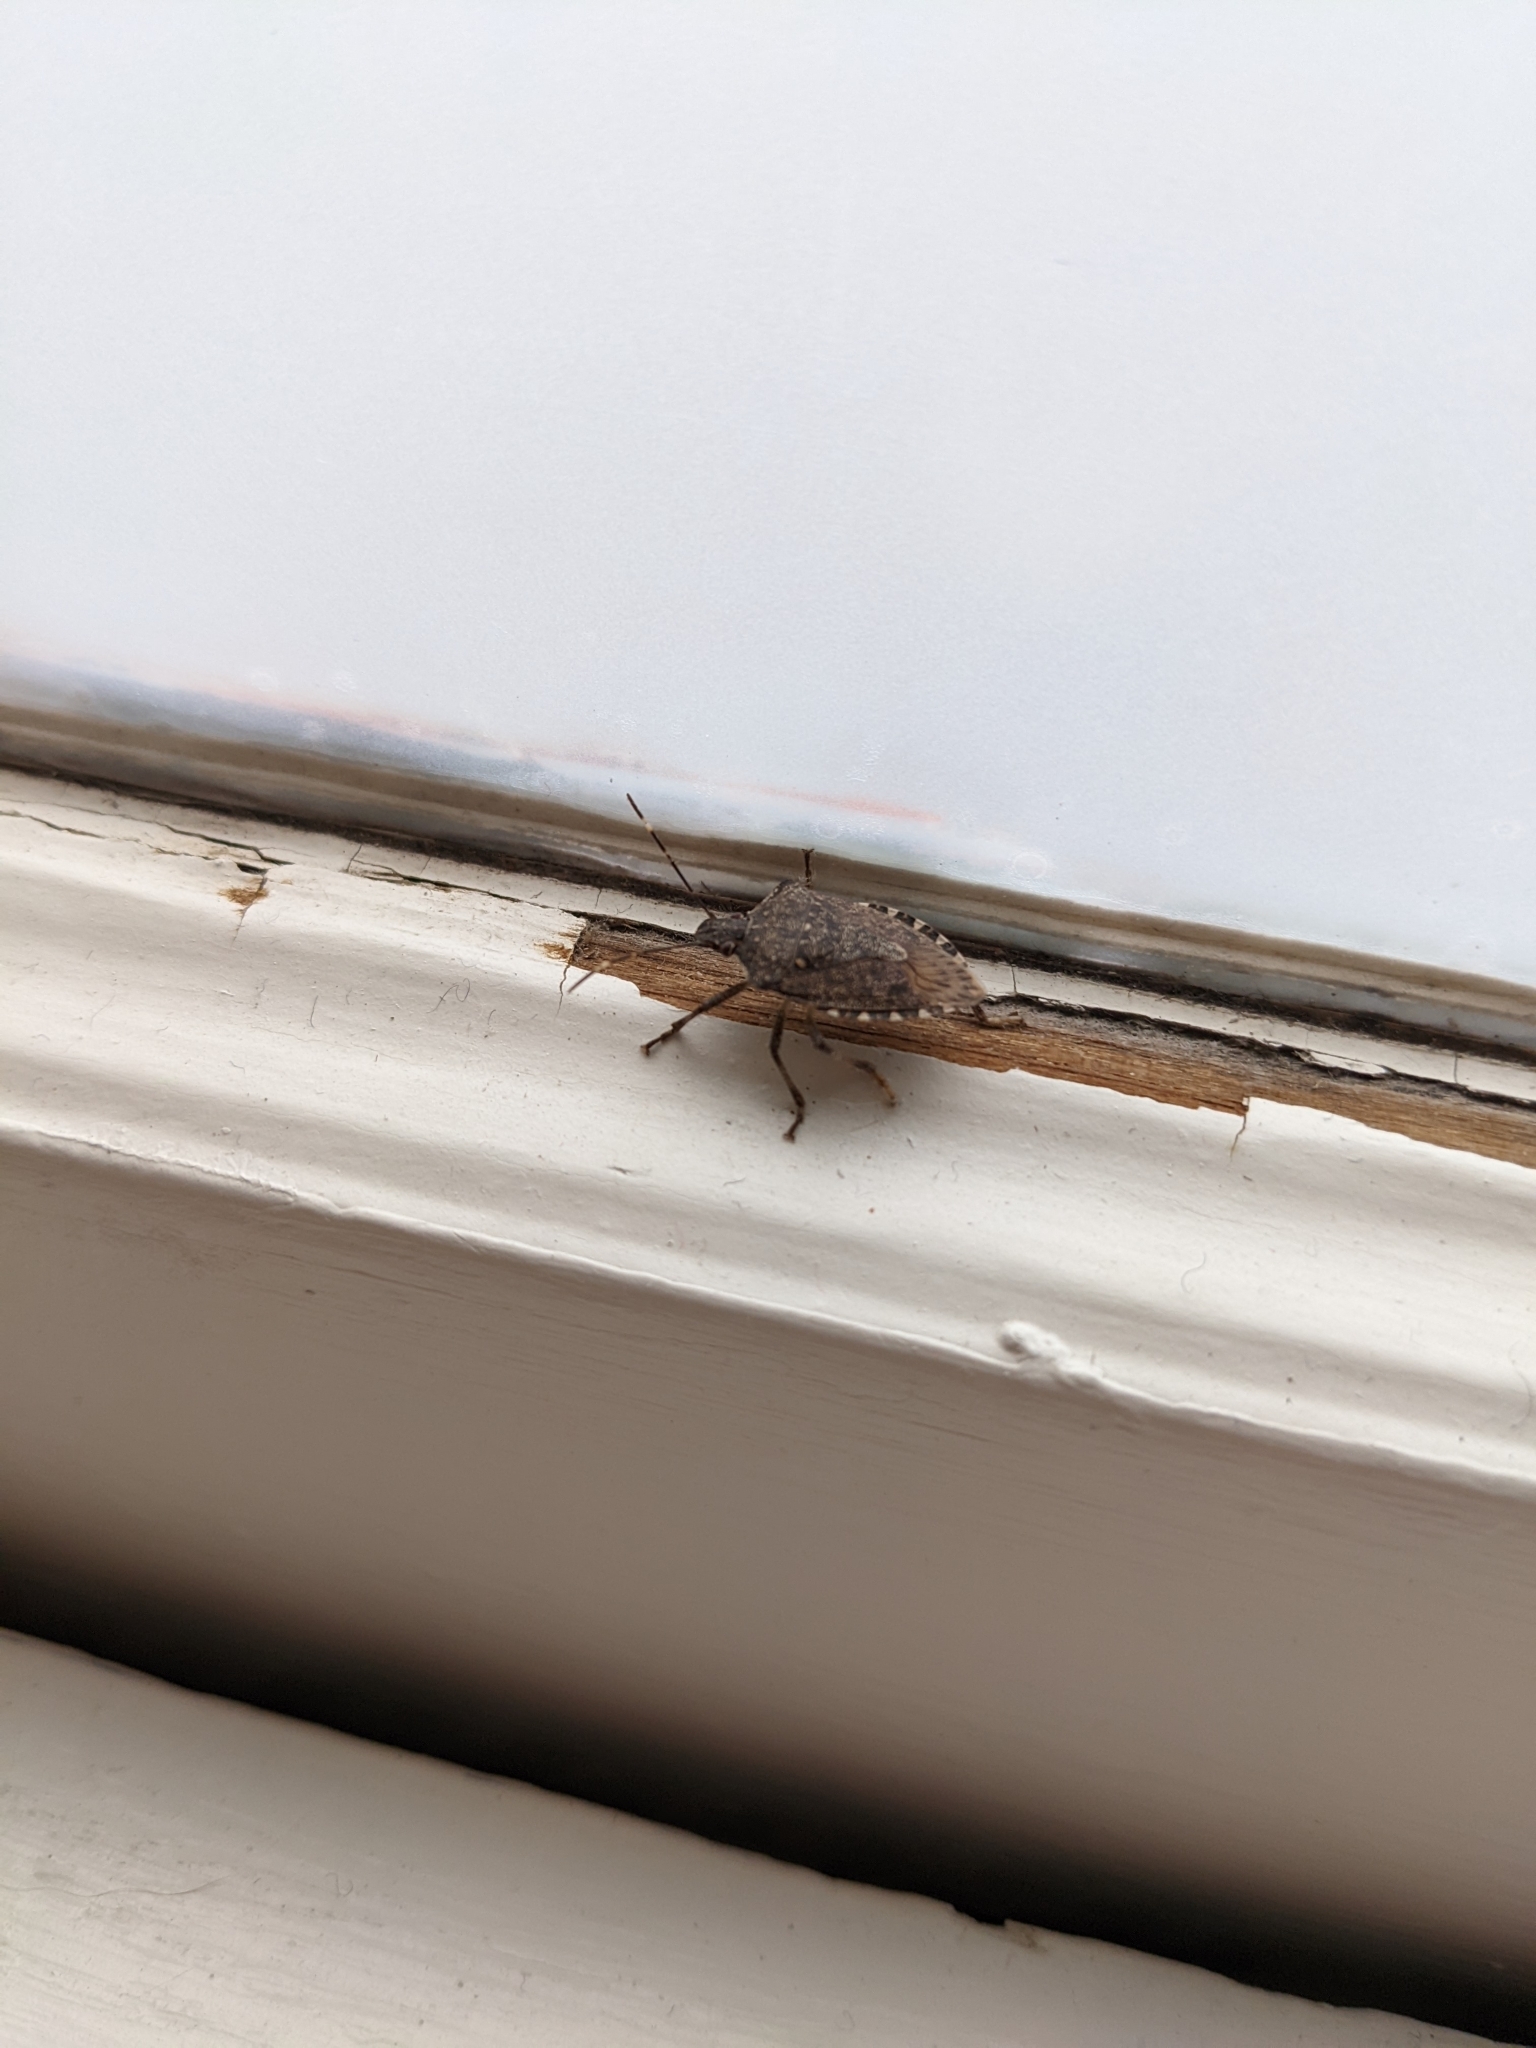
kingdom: Animalia
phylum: Arthropoda
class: Insecta
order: Hemiptera
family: Pentatomidae
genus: Halyomorpha
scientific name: Halyomorpha halys
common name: Brown marmorated stink bug
